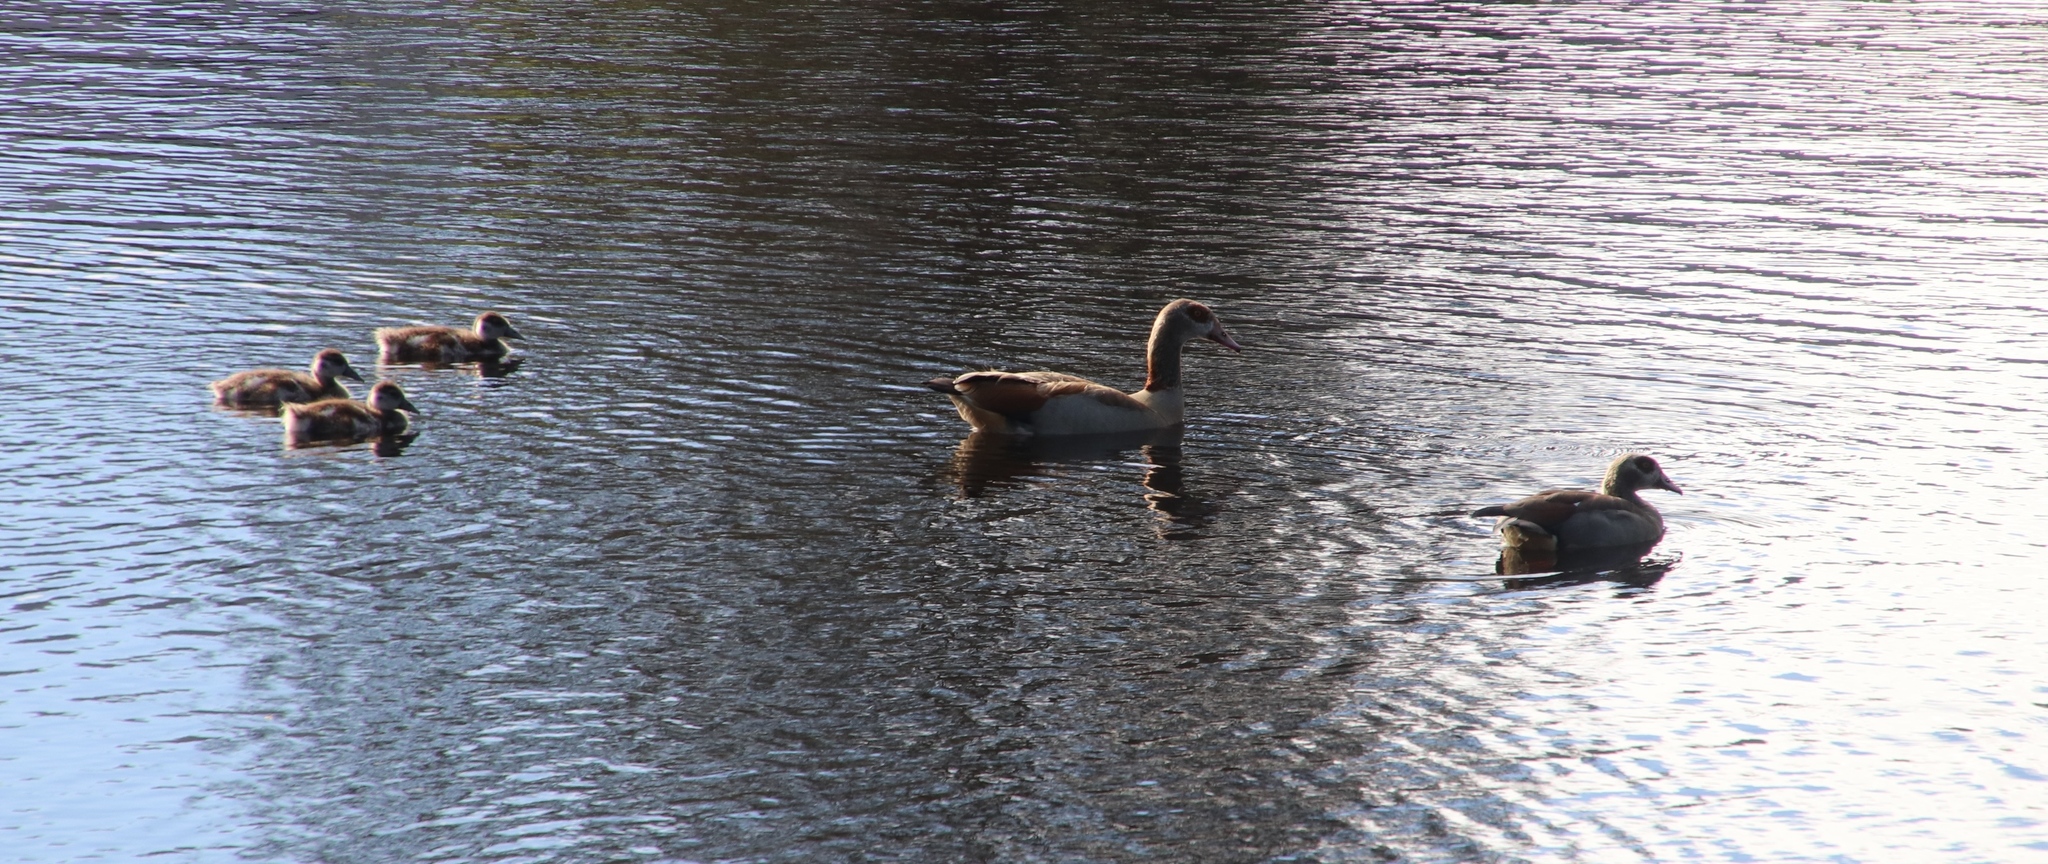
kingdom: Animalia
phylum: Chordata
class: Aves
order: Anseriformes
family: Anatidae
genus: Alopochen
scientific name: Alopochen aegyptiaca
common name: Egyptian goose
